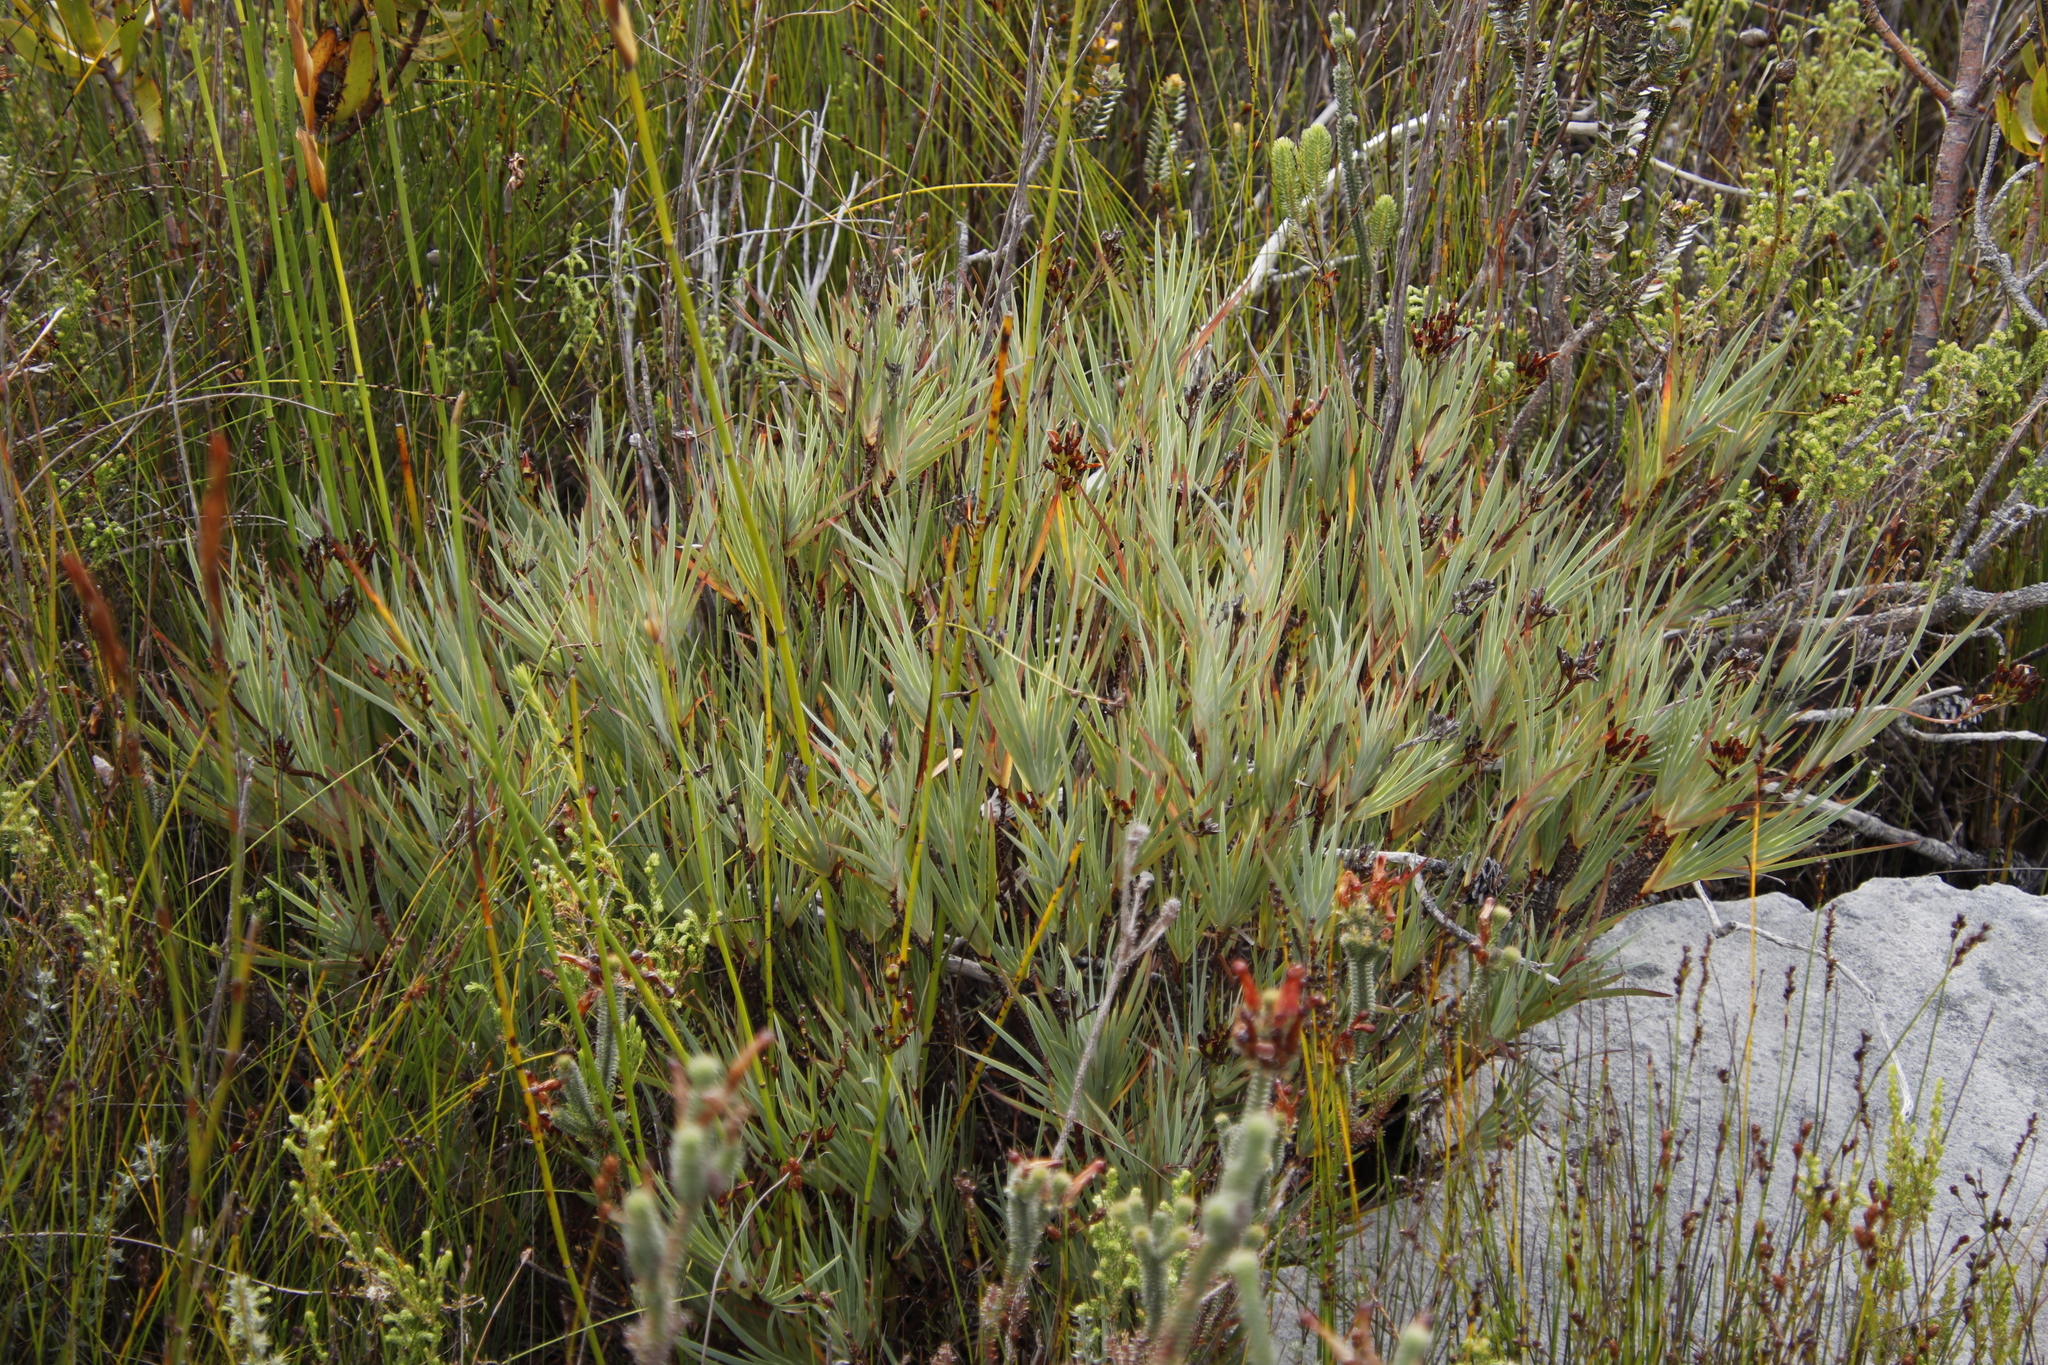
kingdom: Plantae
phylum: Tracheophyta
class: Liliopsida
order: Asparagales
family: Iridaceae
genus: Nivenia
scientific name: Nivenia stokoei
